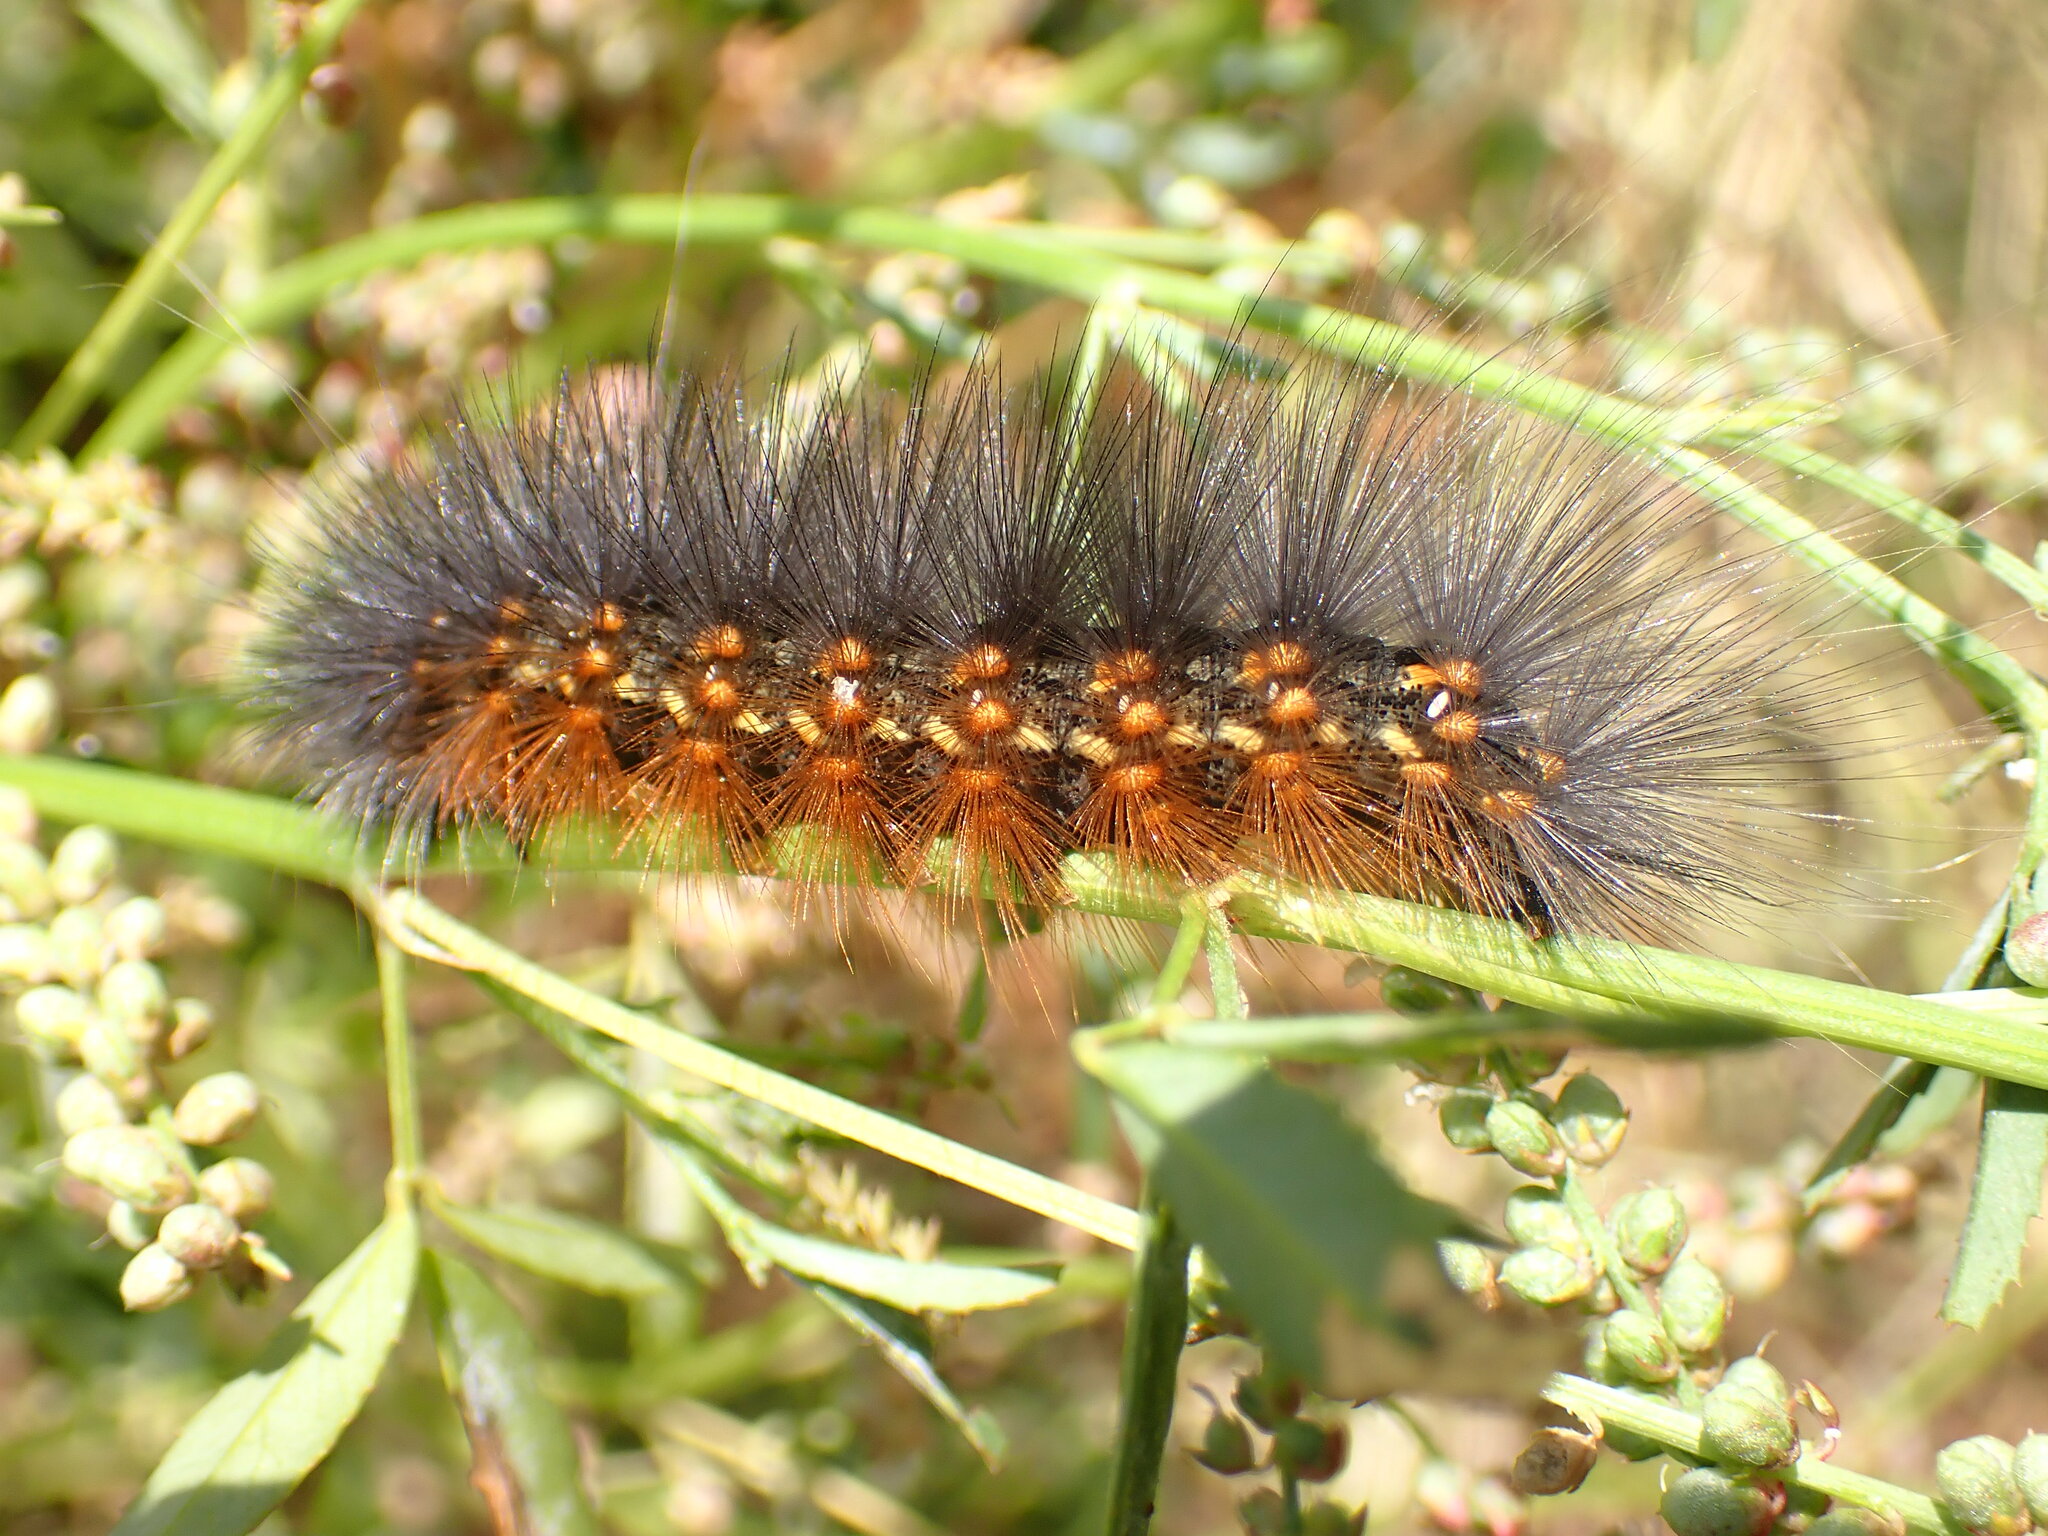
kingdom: Animalia
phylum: Arthropoda
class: Insecta
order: Lepidoptera
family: Erebidae
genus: Estigmene
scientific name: Estigmene acrea
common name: Salt marsh moth
